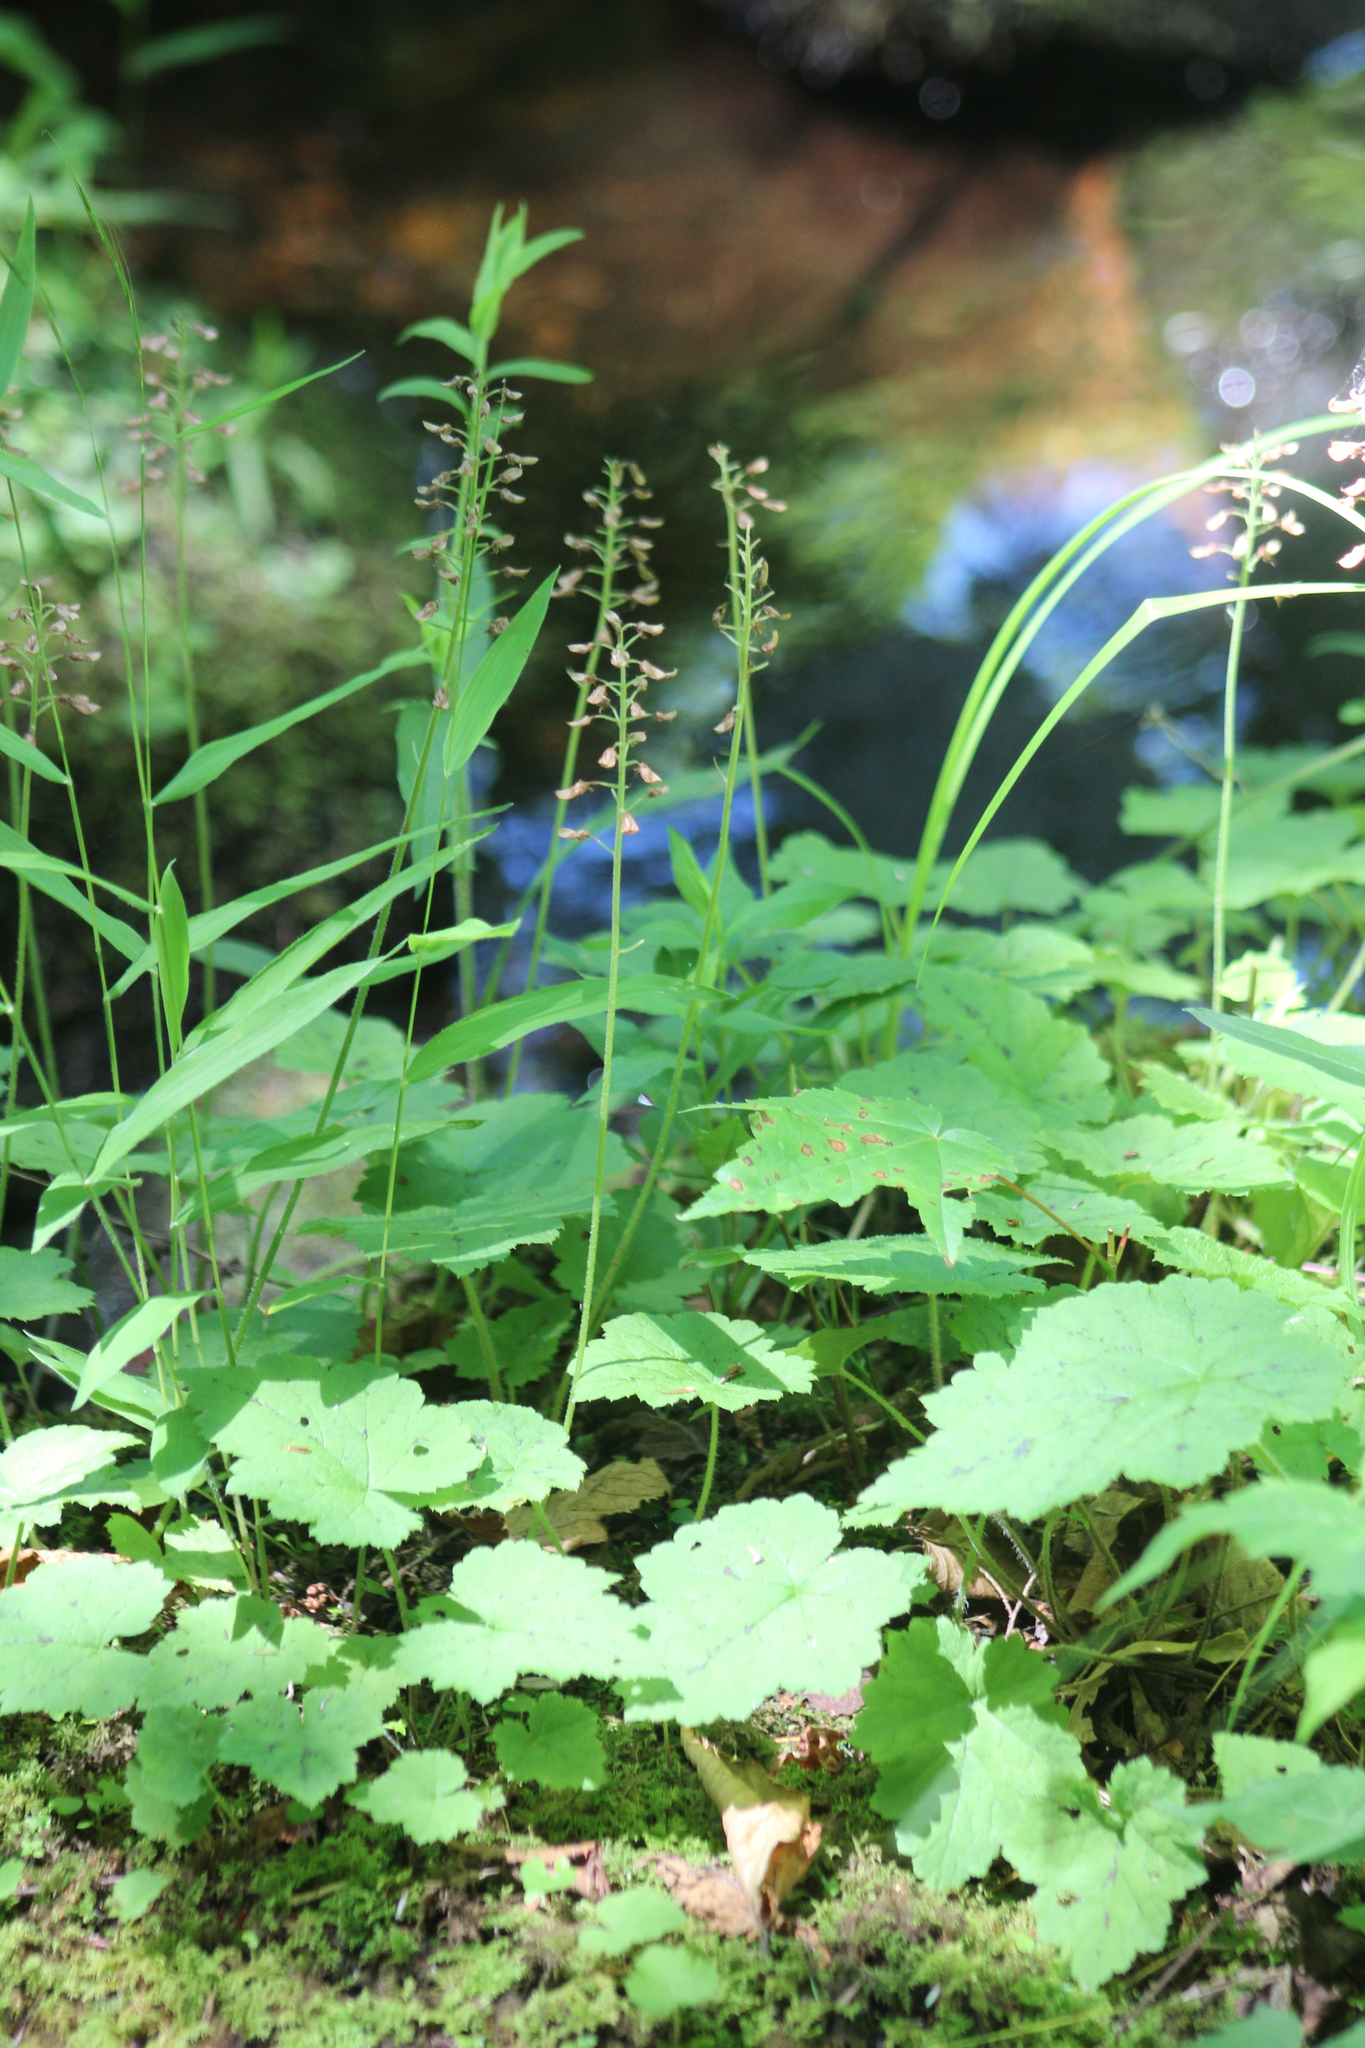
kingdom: Plantae
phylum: Tracheophyta
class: Magnoliopsida
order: Saxifragales
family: Saxifragaceae
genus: Tiarella
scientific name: Tiarella stolonifera
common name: Stoloniferous foamflower
